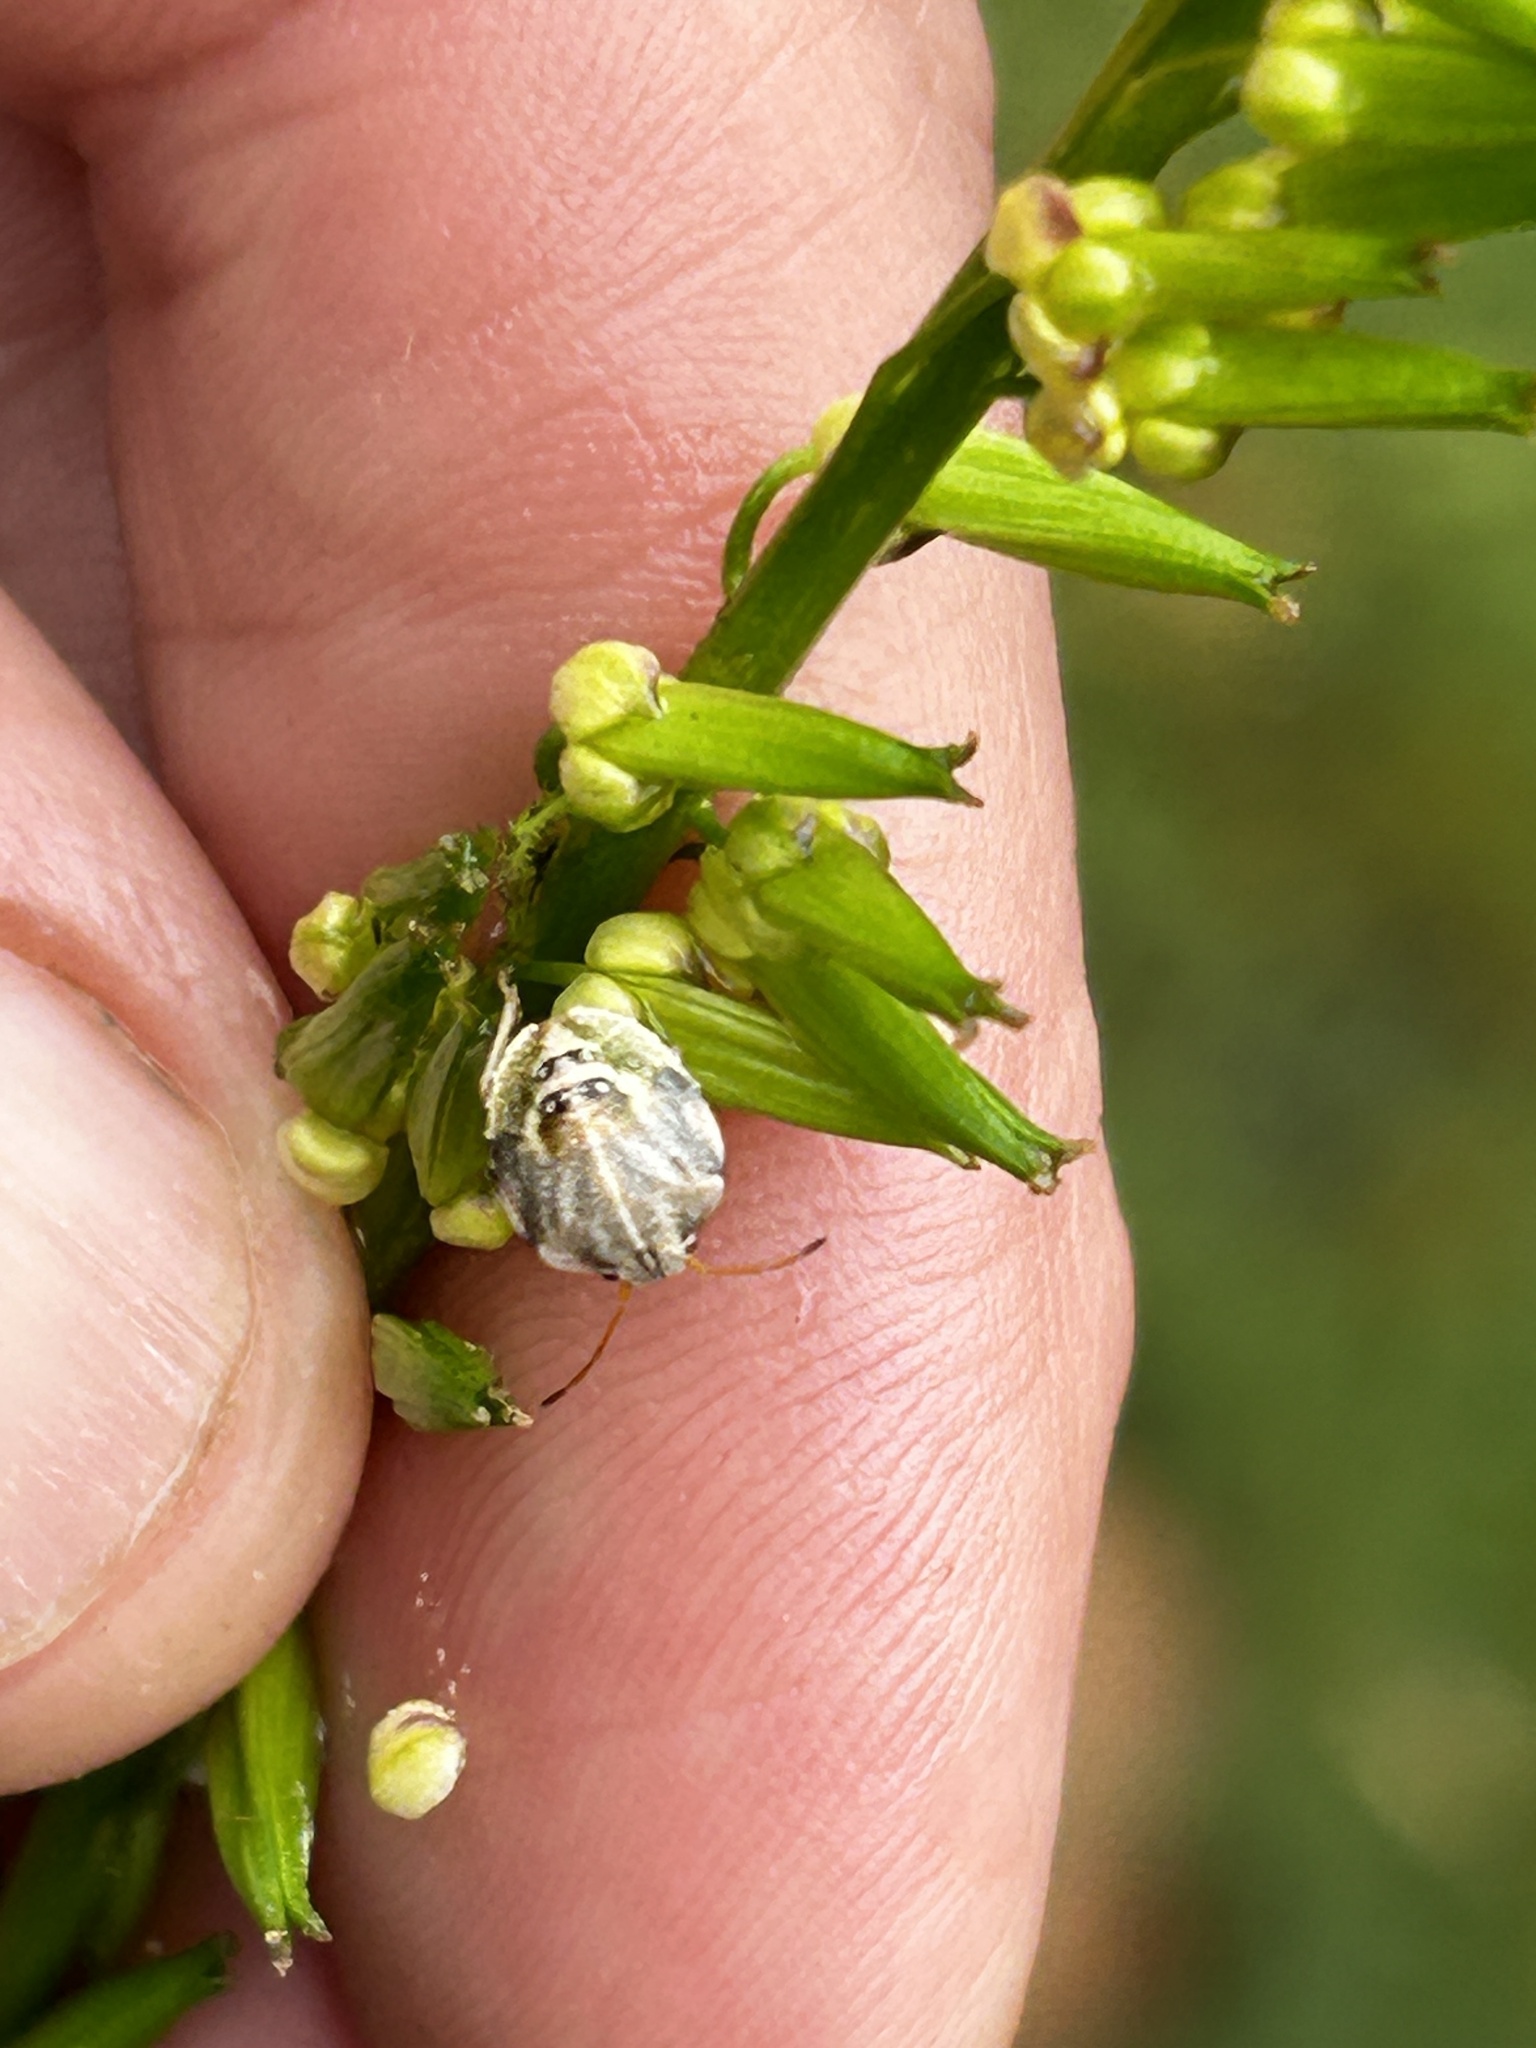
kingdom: Plantae
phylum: Tracheophyta
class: Liliopsida
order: Alismatales
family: Juncaginaceae
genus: Triglochin
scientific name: Triglochin elongata
